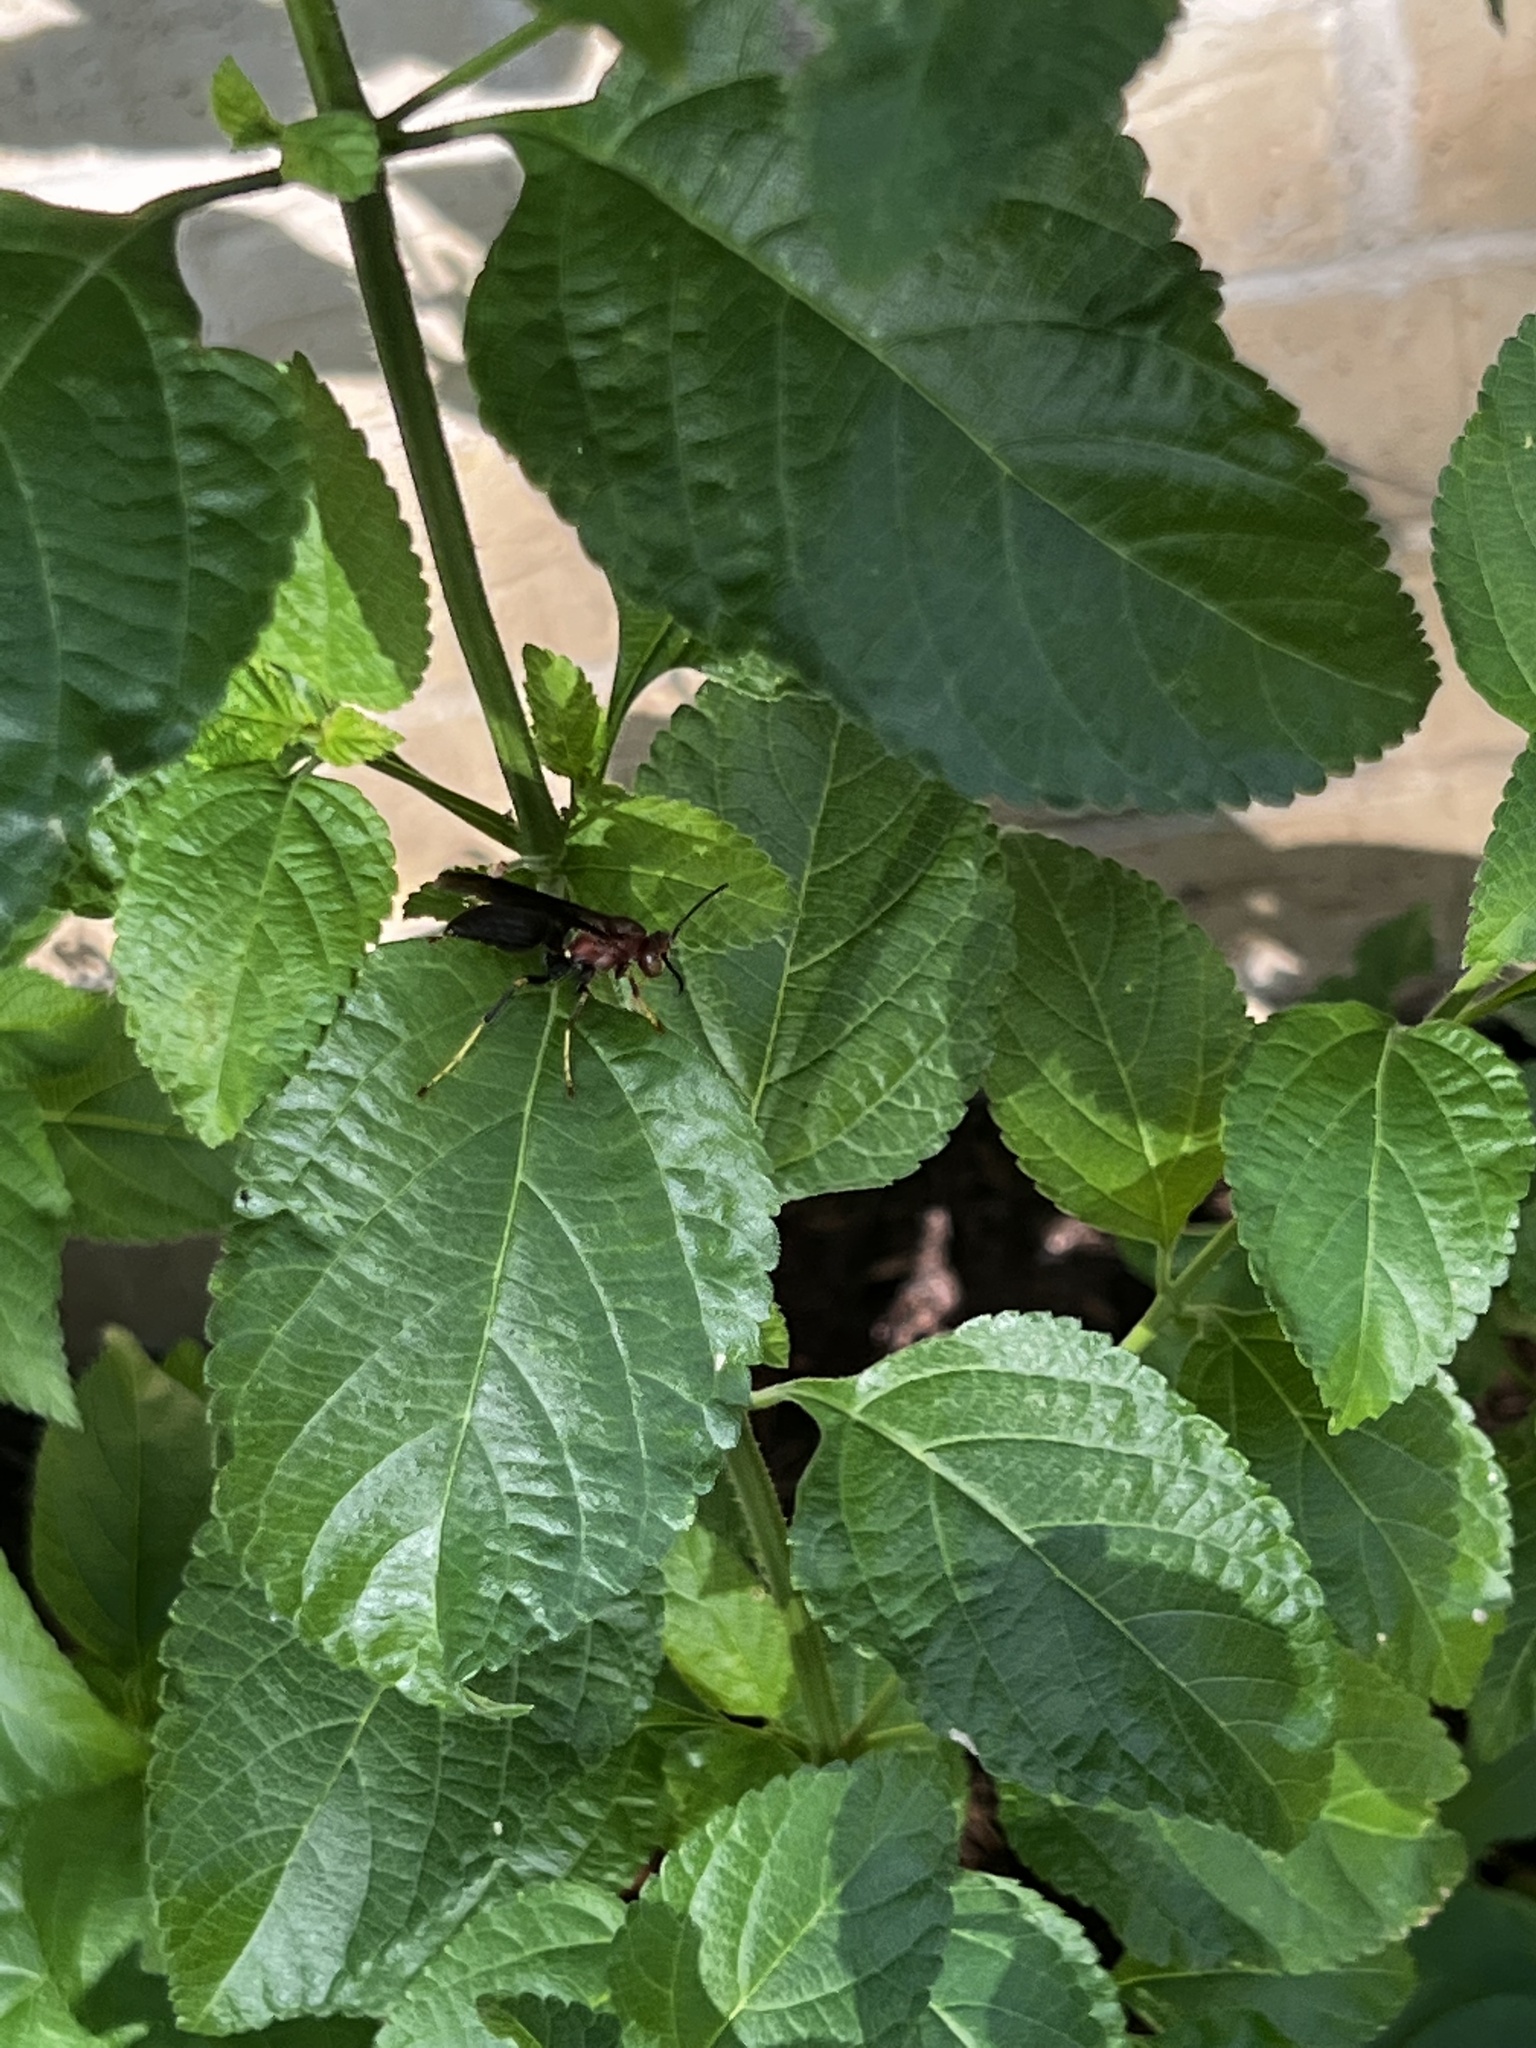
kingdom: Animalia
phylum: Arthropoda
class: Insecta
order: Hymenoptera
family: Eumenidae
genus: Polistes
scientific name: Polistes metricus
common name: Metric paper wasp
